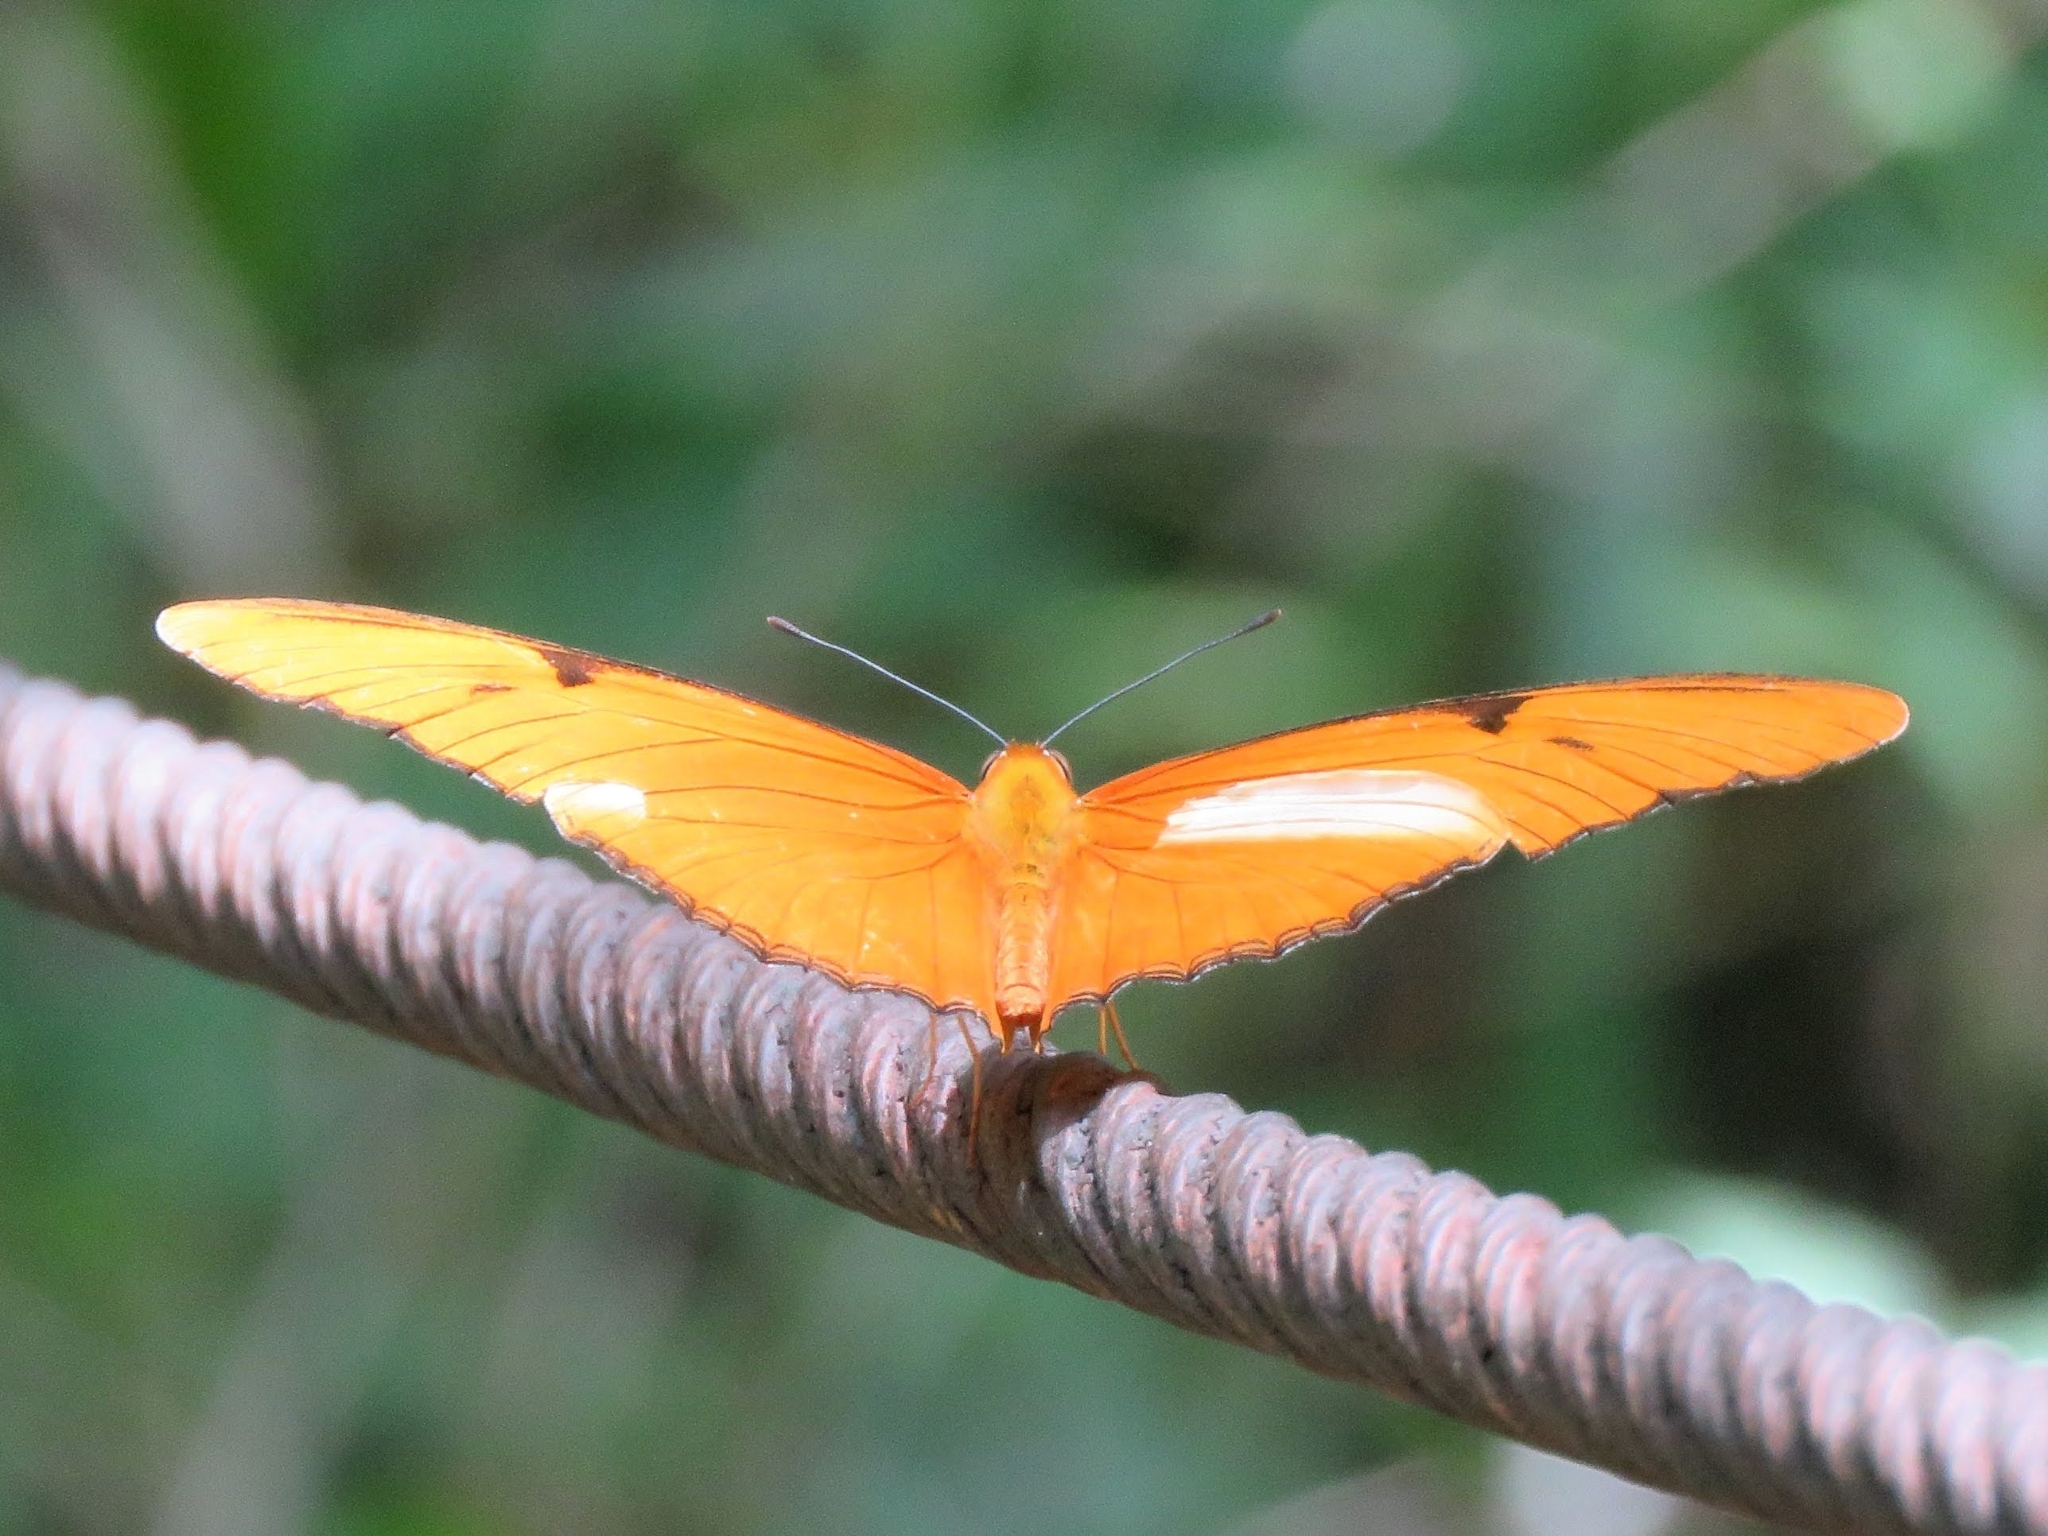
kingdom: Animalia
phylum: Arthropoda
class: Insecta
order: Lepidoptera
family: Nymphalidae
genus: Dryas
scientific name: Dryas iulia
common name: Flambeau
